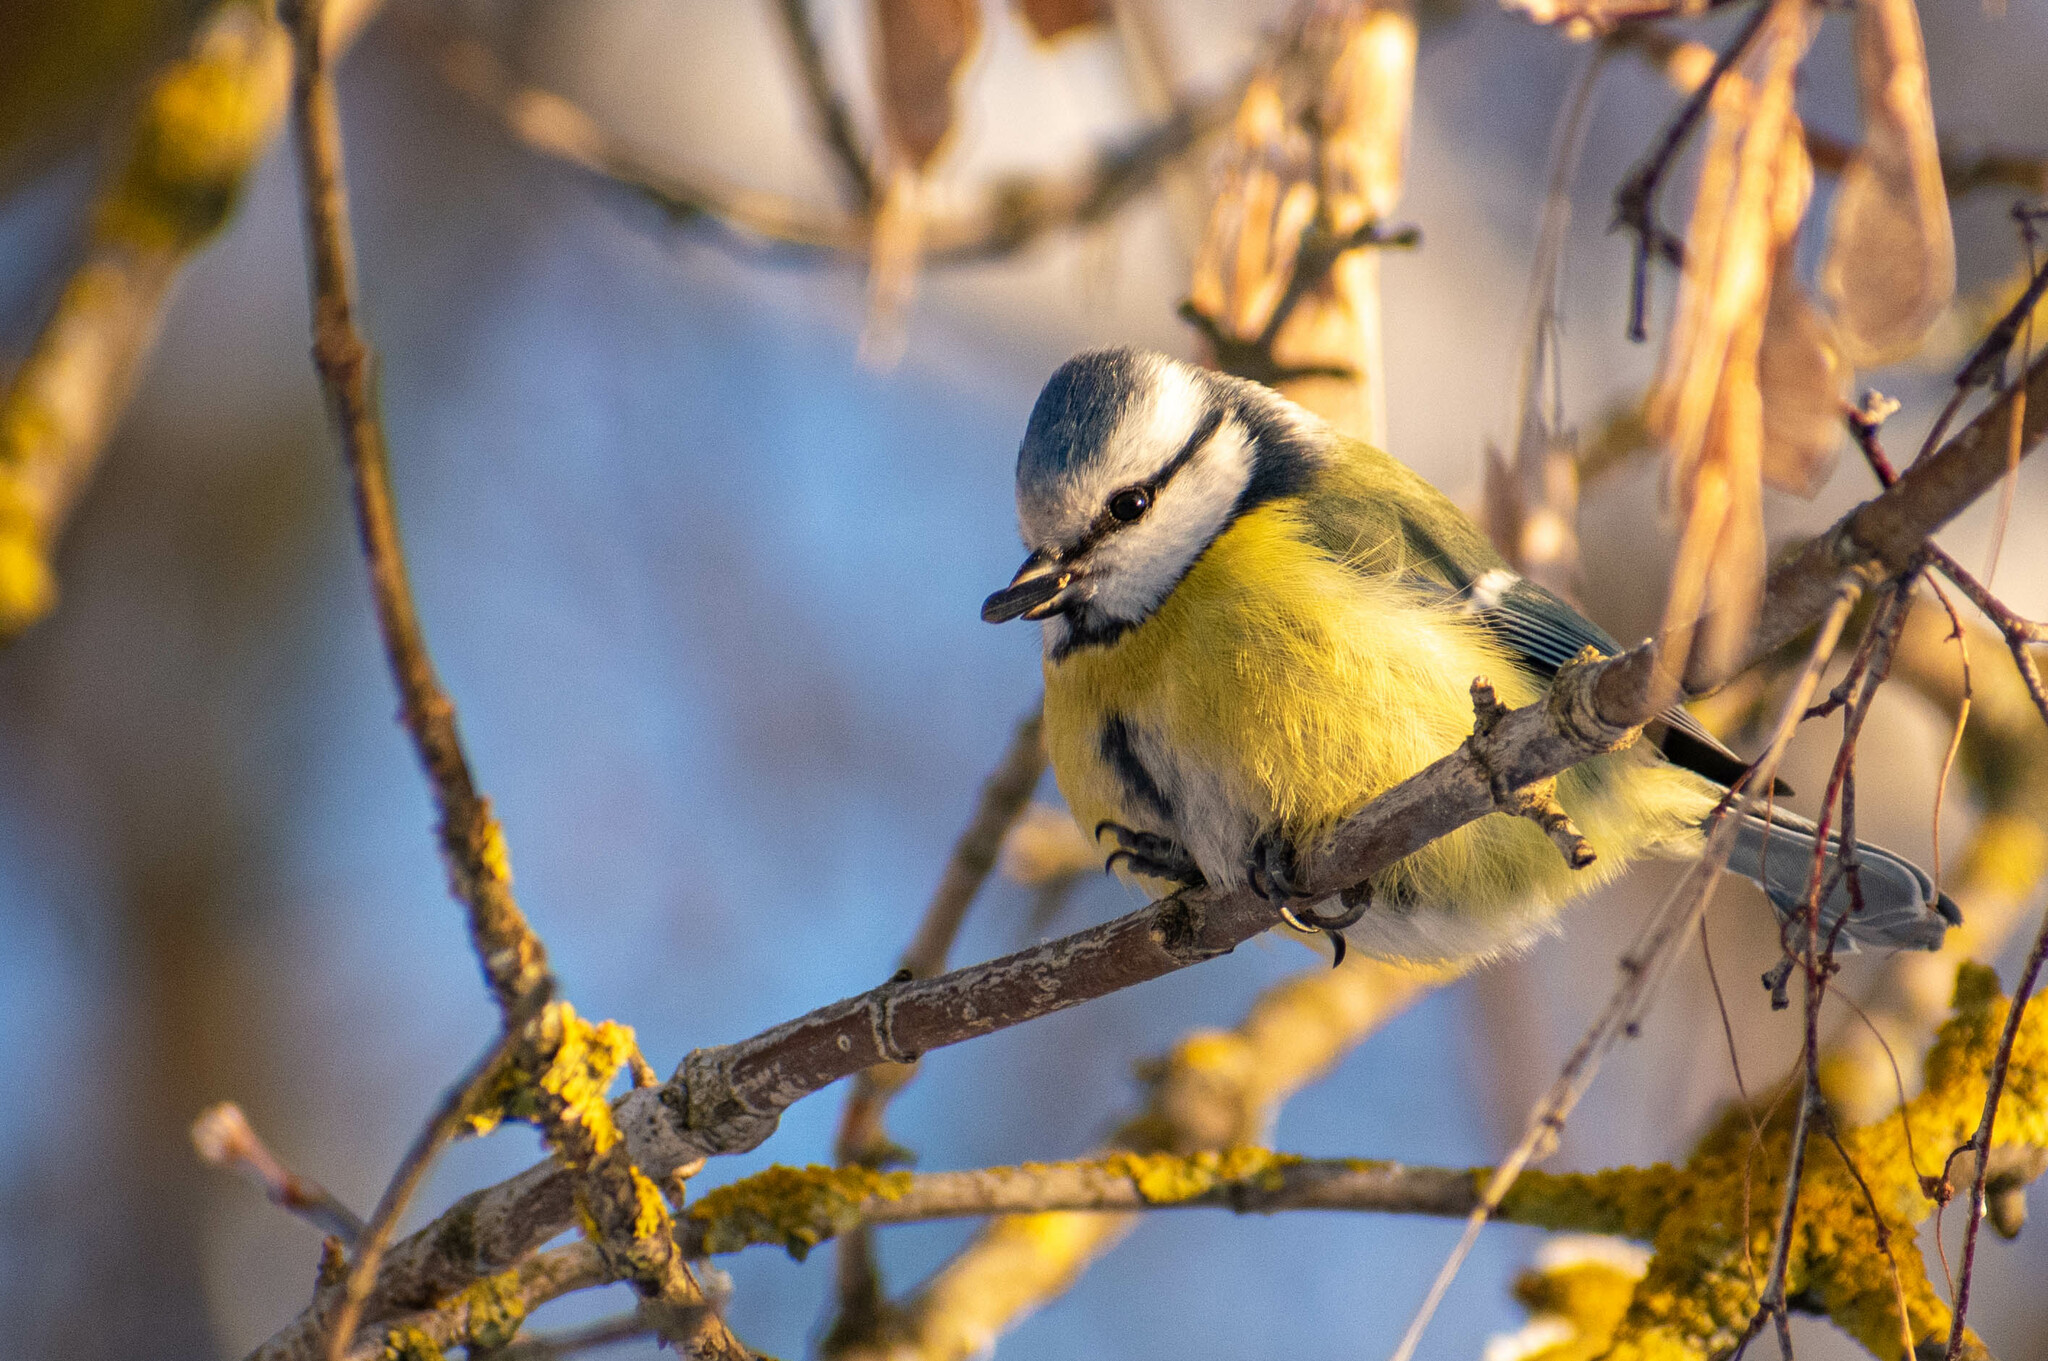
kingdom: Animalia
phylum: Chordata
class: Aves
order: Passeriformes
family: Paridae
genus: Cyanistes
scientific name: Cyanistes caeruleus
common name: Eurasian blue tit
